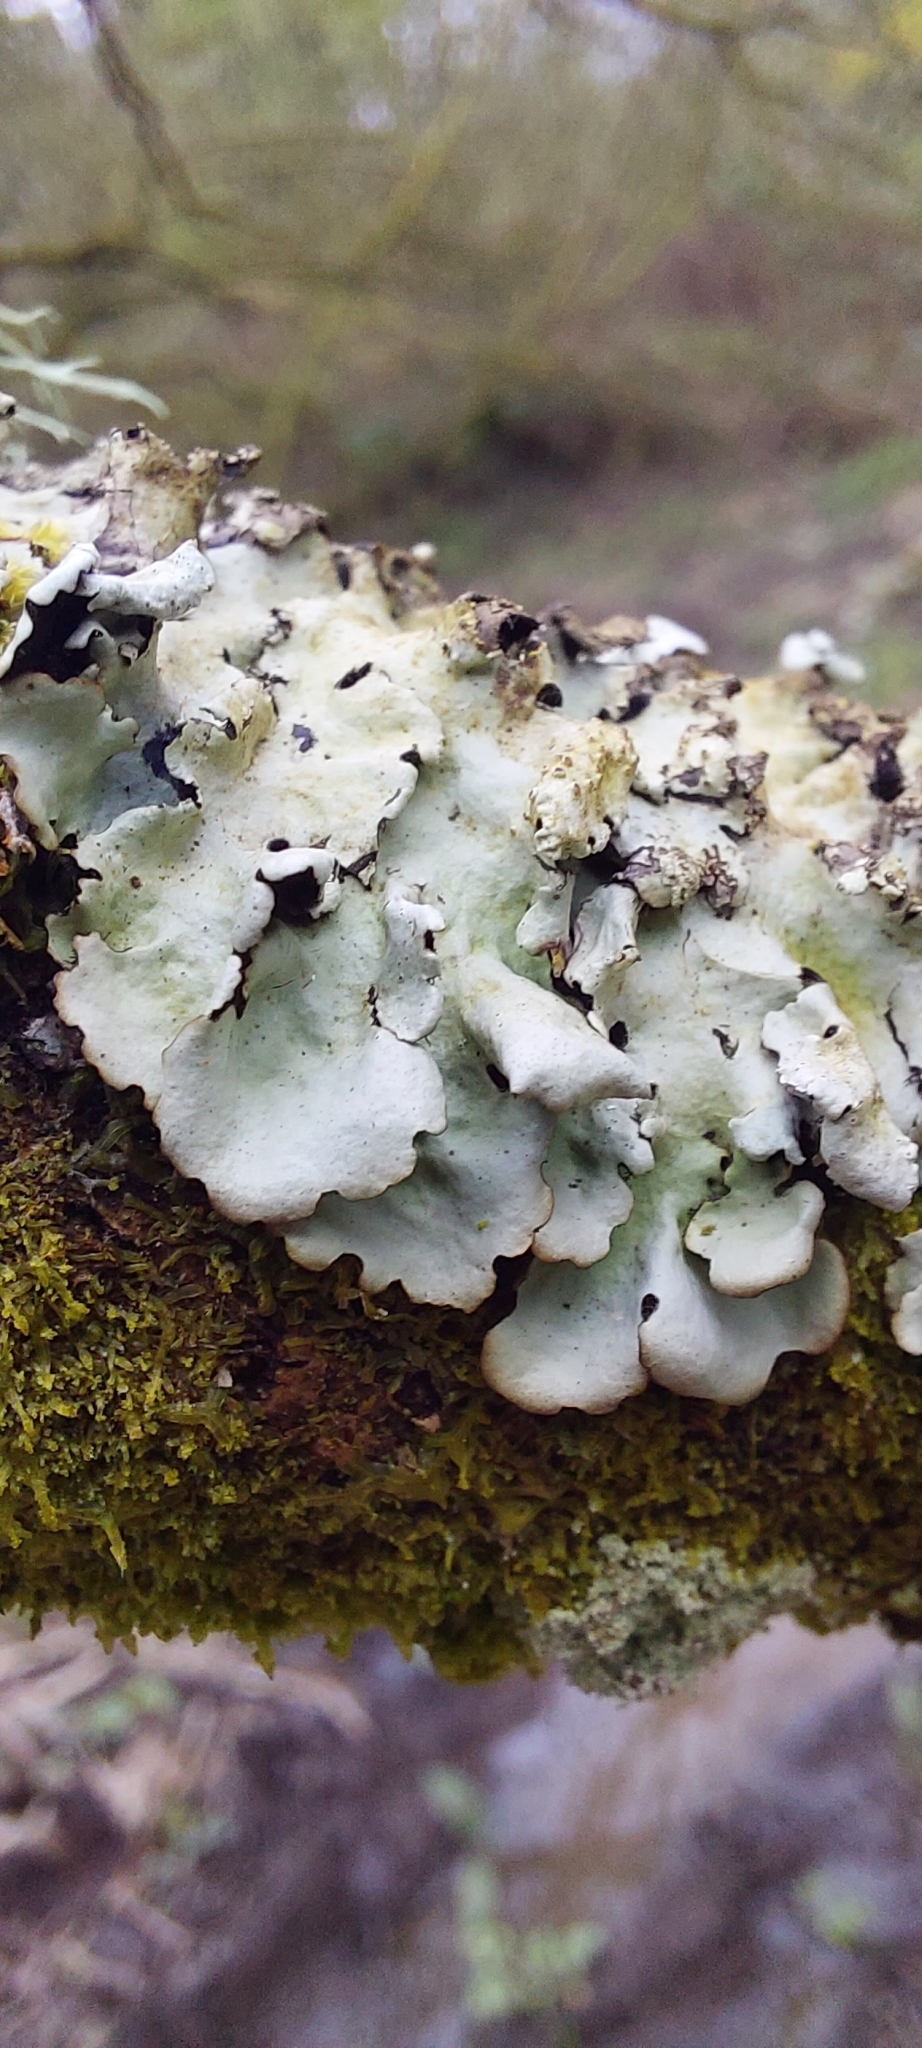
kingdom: Fungi
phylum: Ascomycota
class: Lecanoromycetes
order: Lecanorales
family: Parmeliaceae
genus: Parmotrema
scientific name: Parmotrema perlatum
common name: Black stone flower
